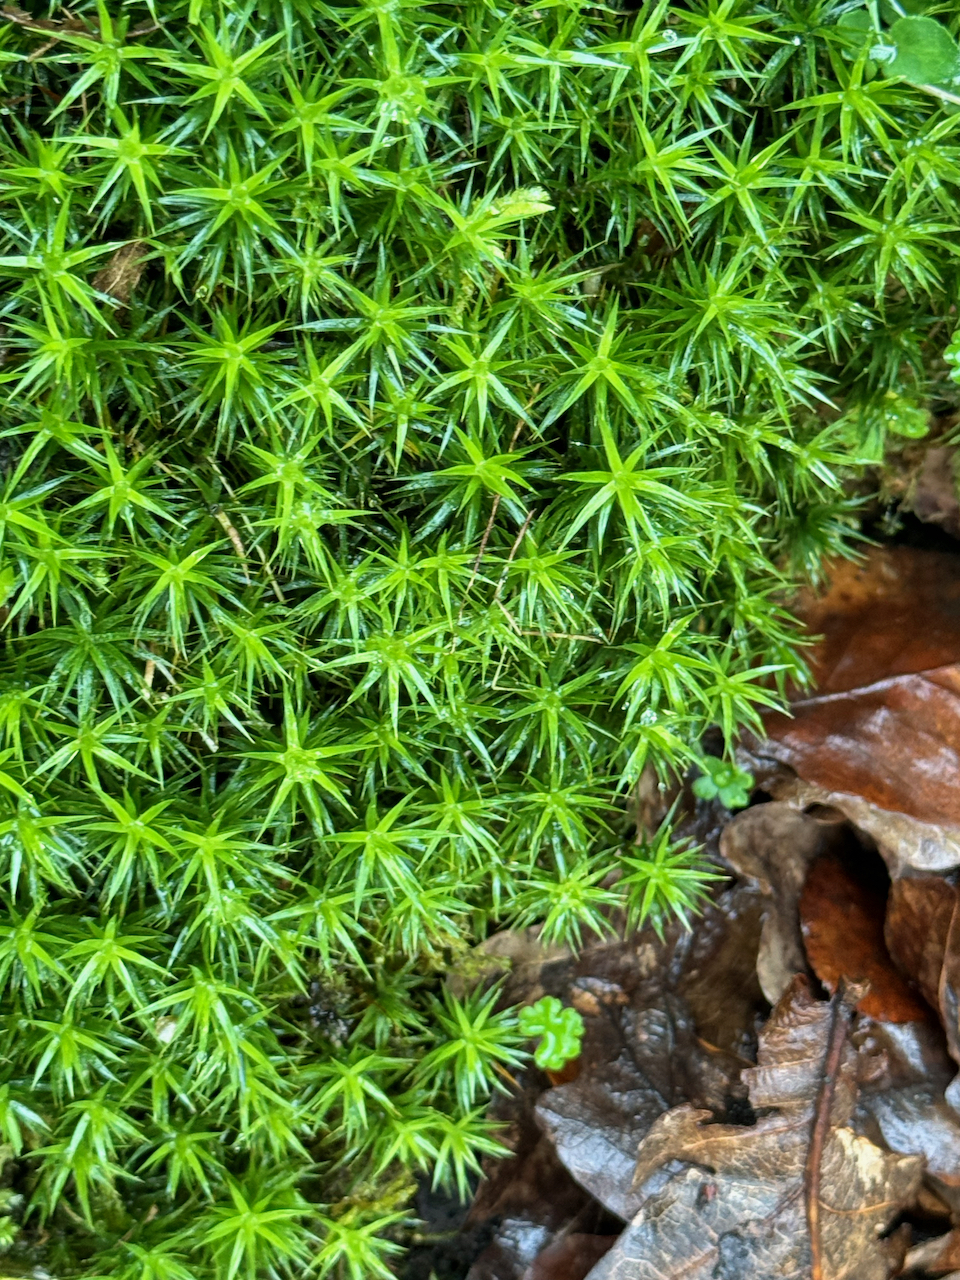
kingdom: Plantae
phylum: Bryophyta
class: Polytrichopsida
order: Polytrichales
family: Polytrichaceae
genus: Polytrichum
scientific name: Polytrichum formosum
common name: Bank haircap moss
